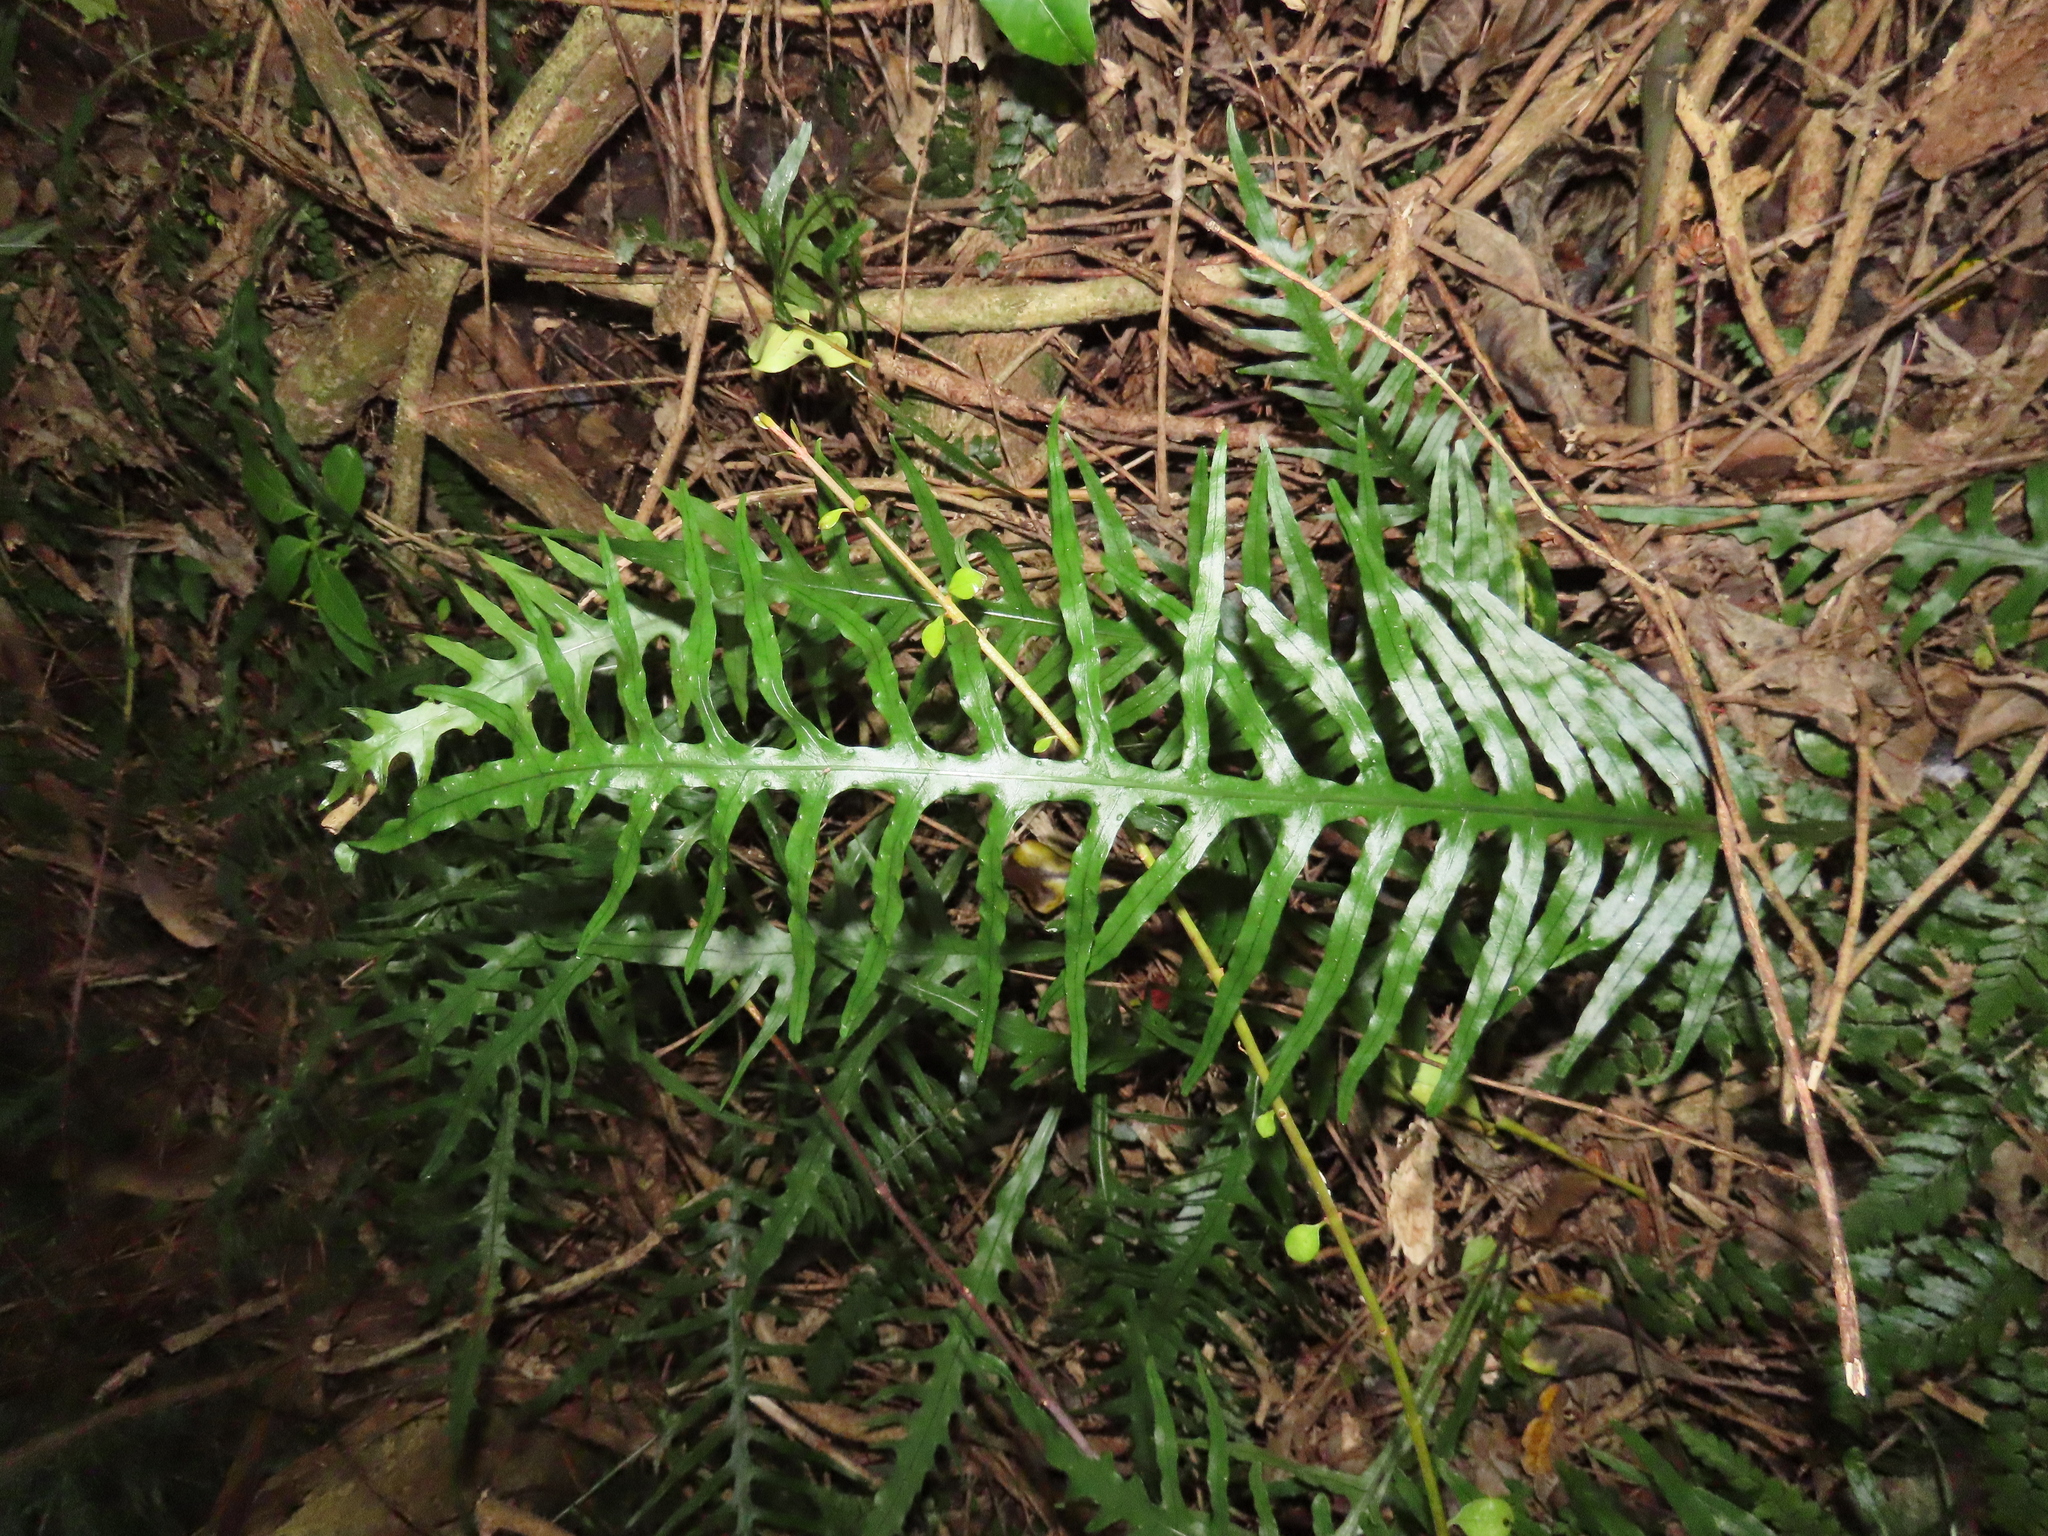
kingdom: Plantae
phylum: Tracheophyta
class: Polypodiopsida
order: Polypodiales
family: Polypodiaceae
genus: Lecanopteris
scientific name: Lecanopteris scandens
